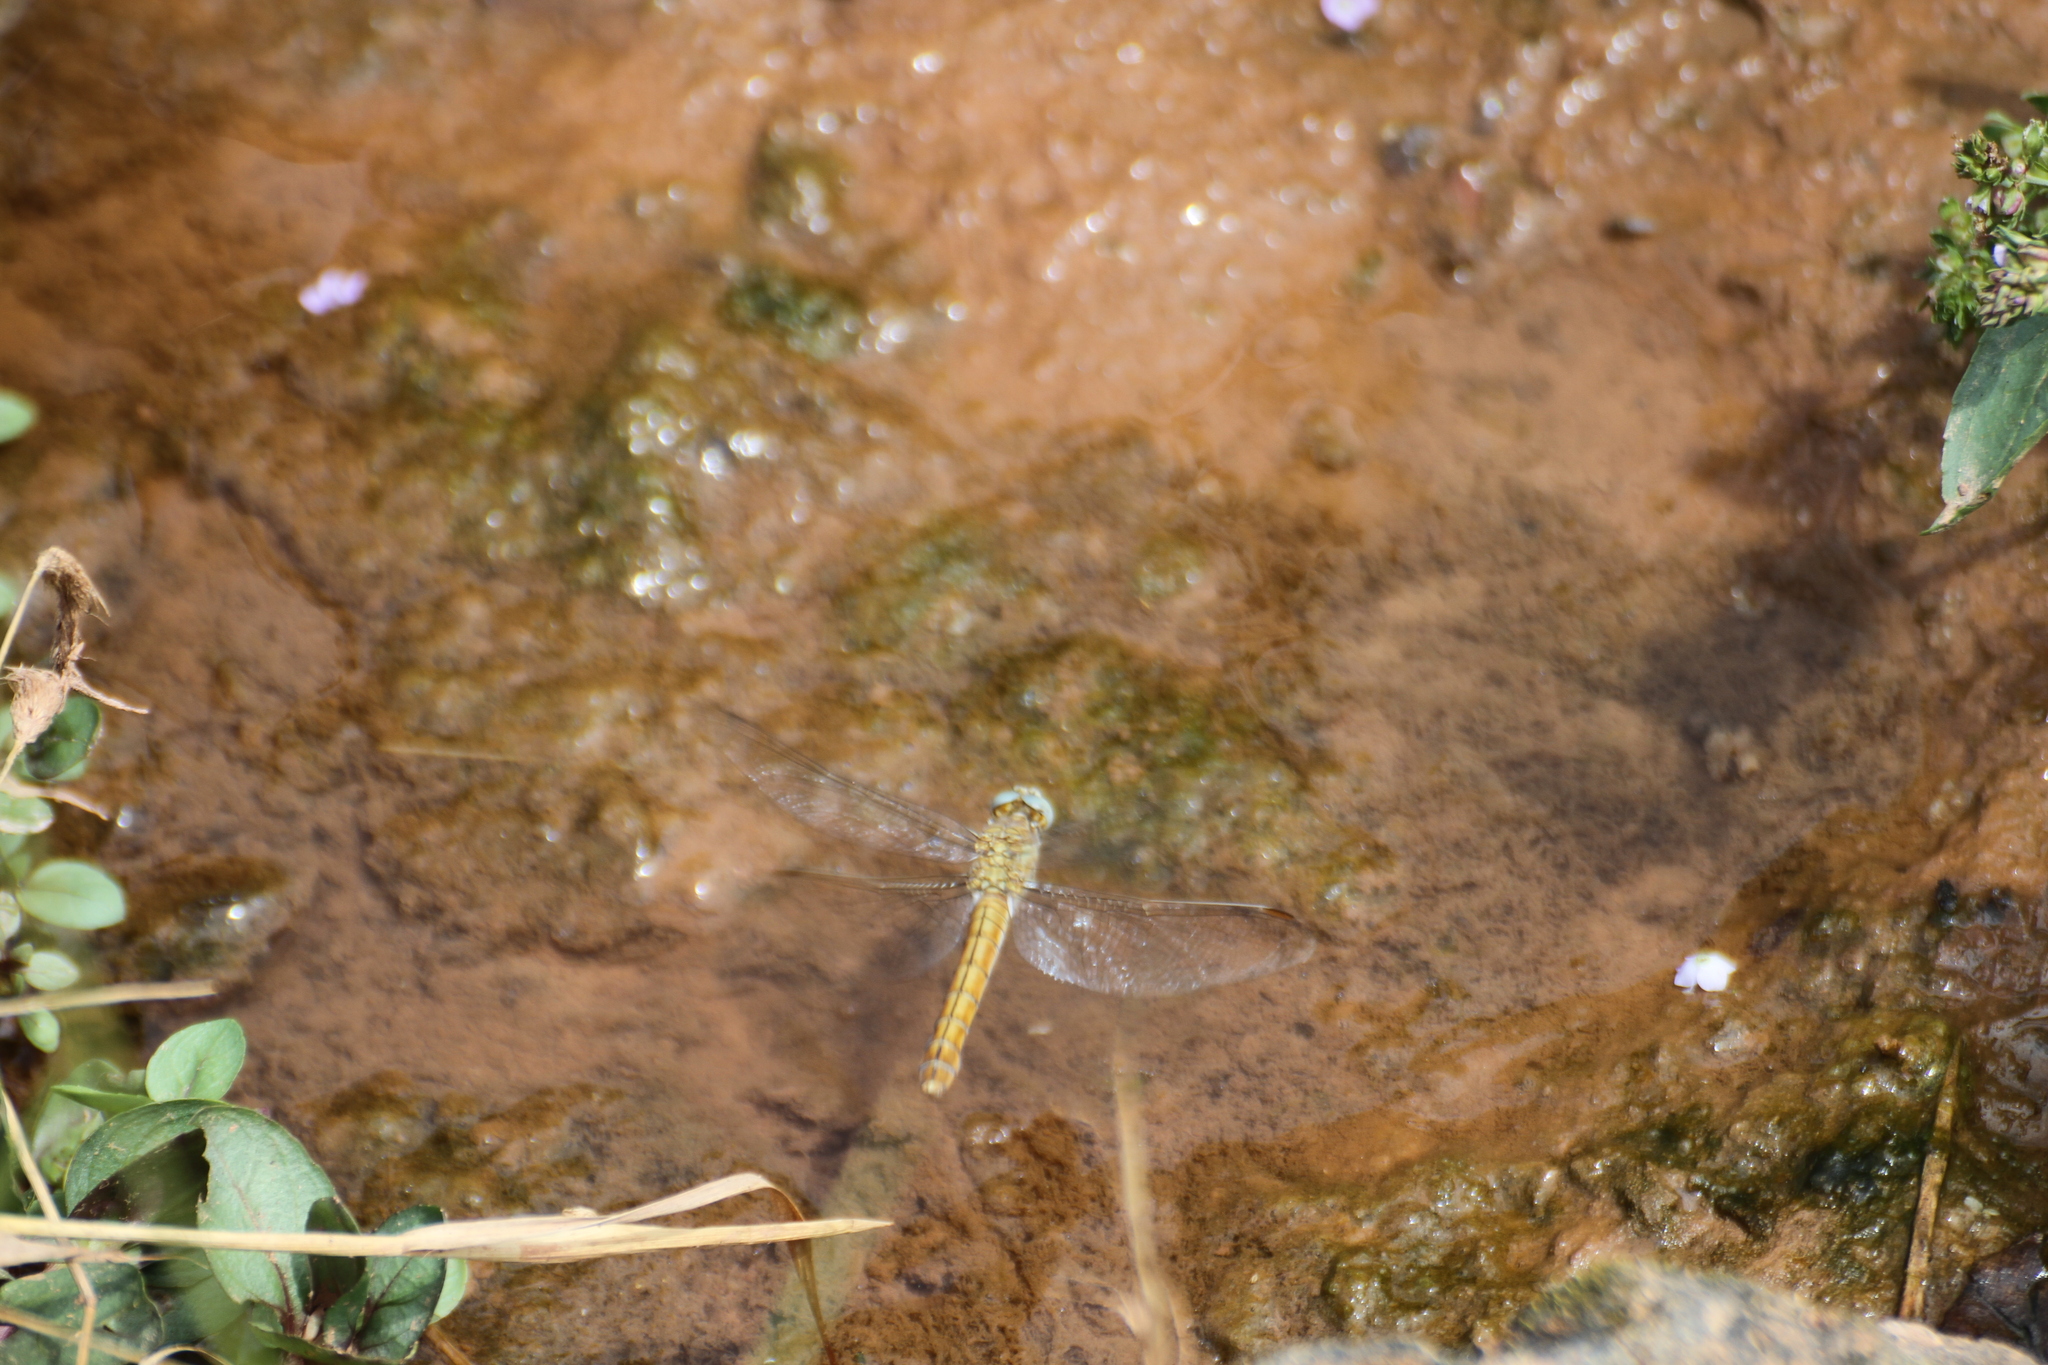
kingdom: Animalia
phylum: Arthropoda
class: Insecta
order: Odonata
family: Libellulidae
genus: Orthetrum
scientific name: Orthetrum brunneum
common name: Southern skimmer
